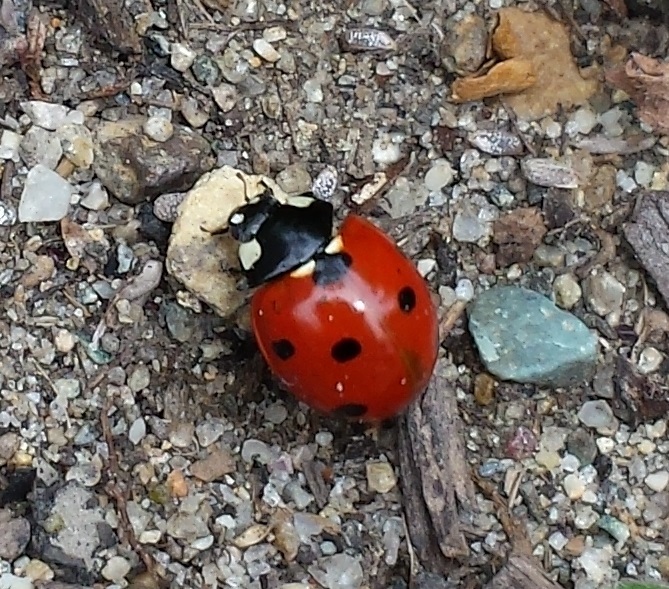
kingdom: Animalia
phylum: Arthropoda
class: Insecta
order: Coleoptera
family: Coccinellidae
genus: Coccinella
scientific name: Coccinella septempunctata
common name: Sevenspotted lady beetle
